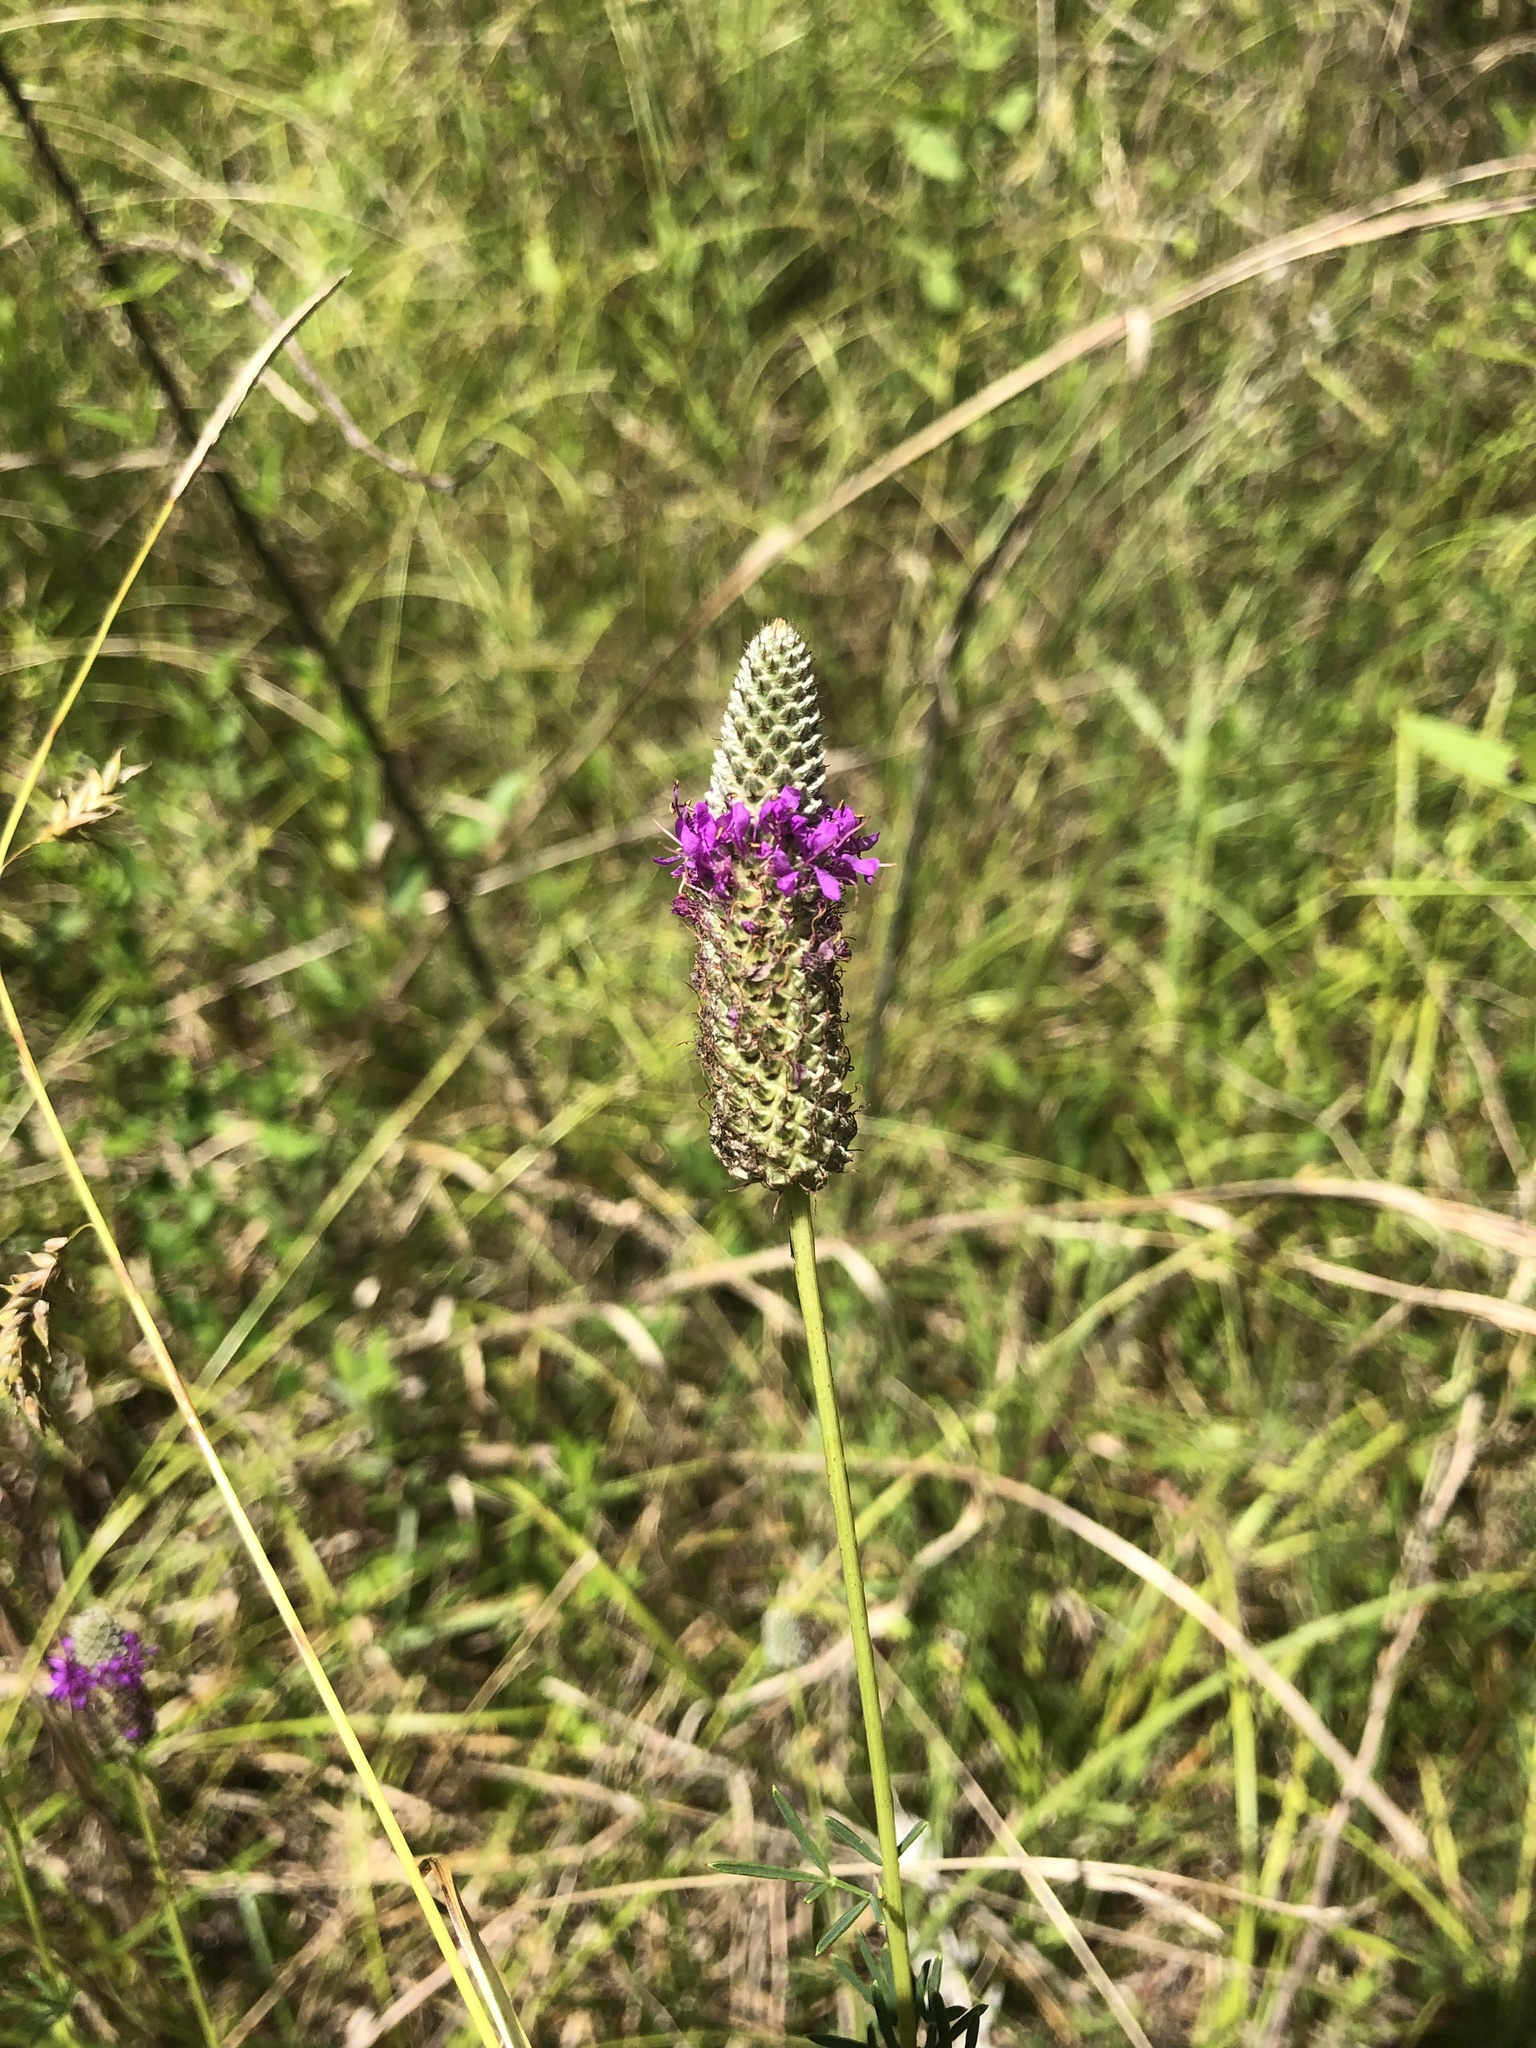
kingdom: Plantae
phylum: Tracheophyta
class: Magnoliopsida
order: Fabales
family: Fabaceae
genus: Dalea
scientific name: Dalea purpurea
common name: Purple prairie-clover
